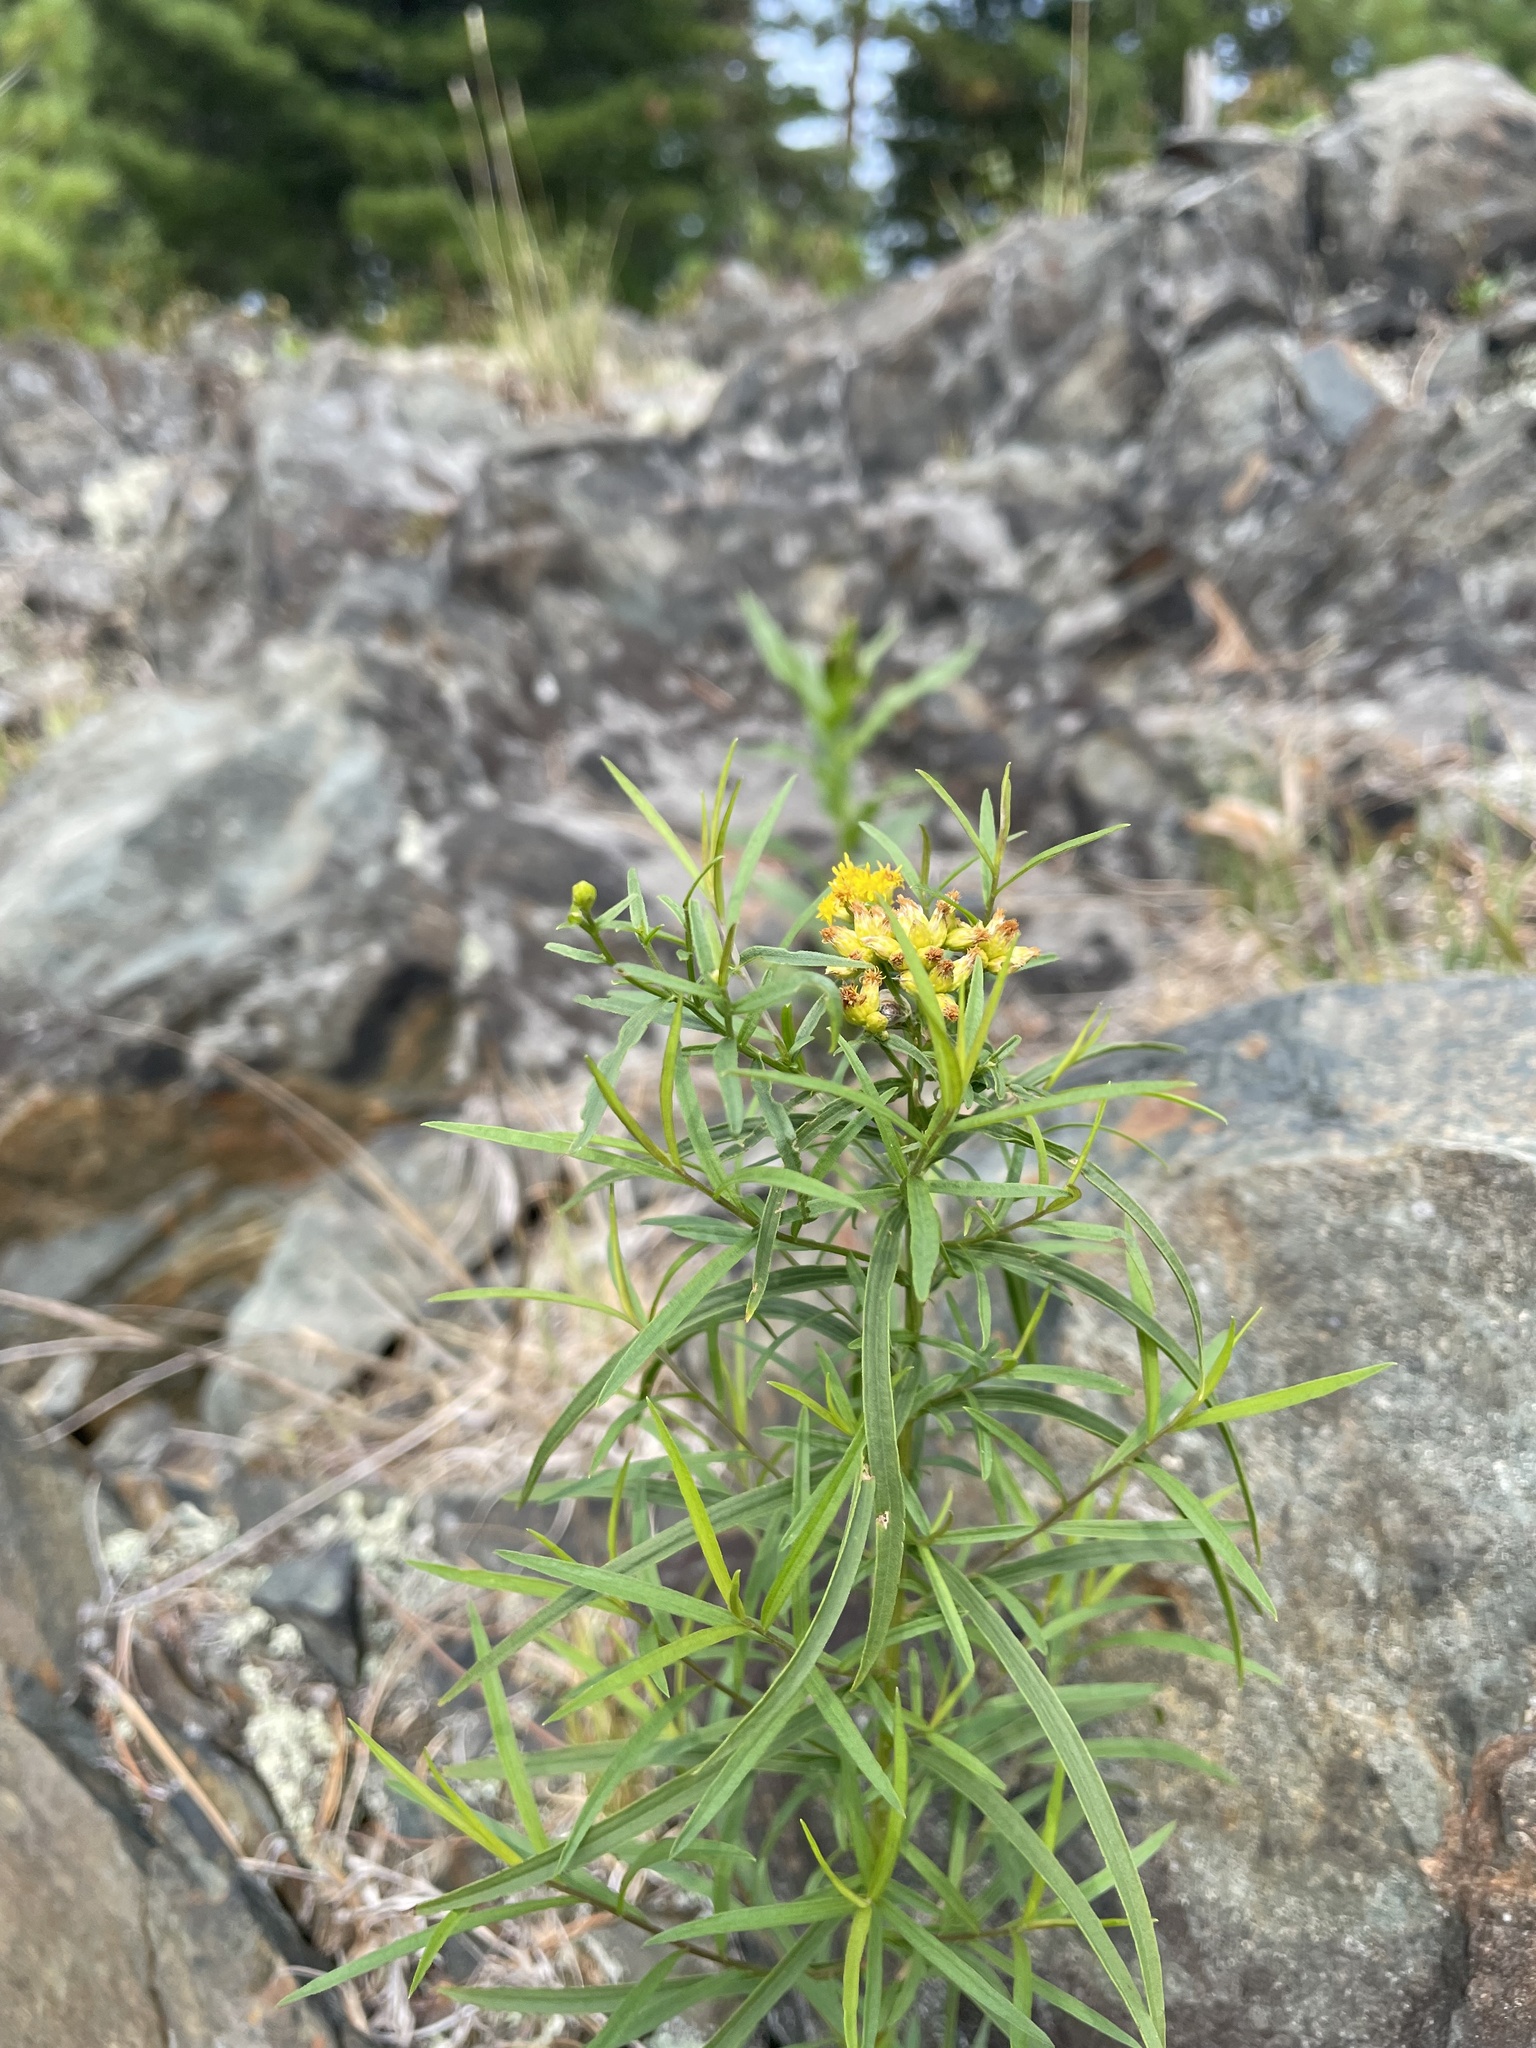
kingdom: Plantae
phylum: Tracheophyta
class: Magnoliopsida
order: Asterales
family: Asteraceae
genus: Euthamia
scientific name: Euthamia graminifolia
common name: Common goldentop
